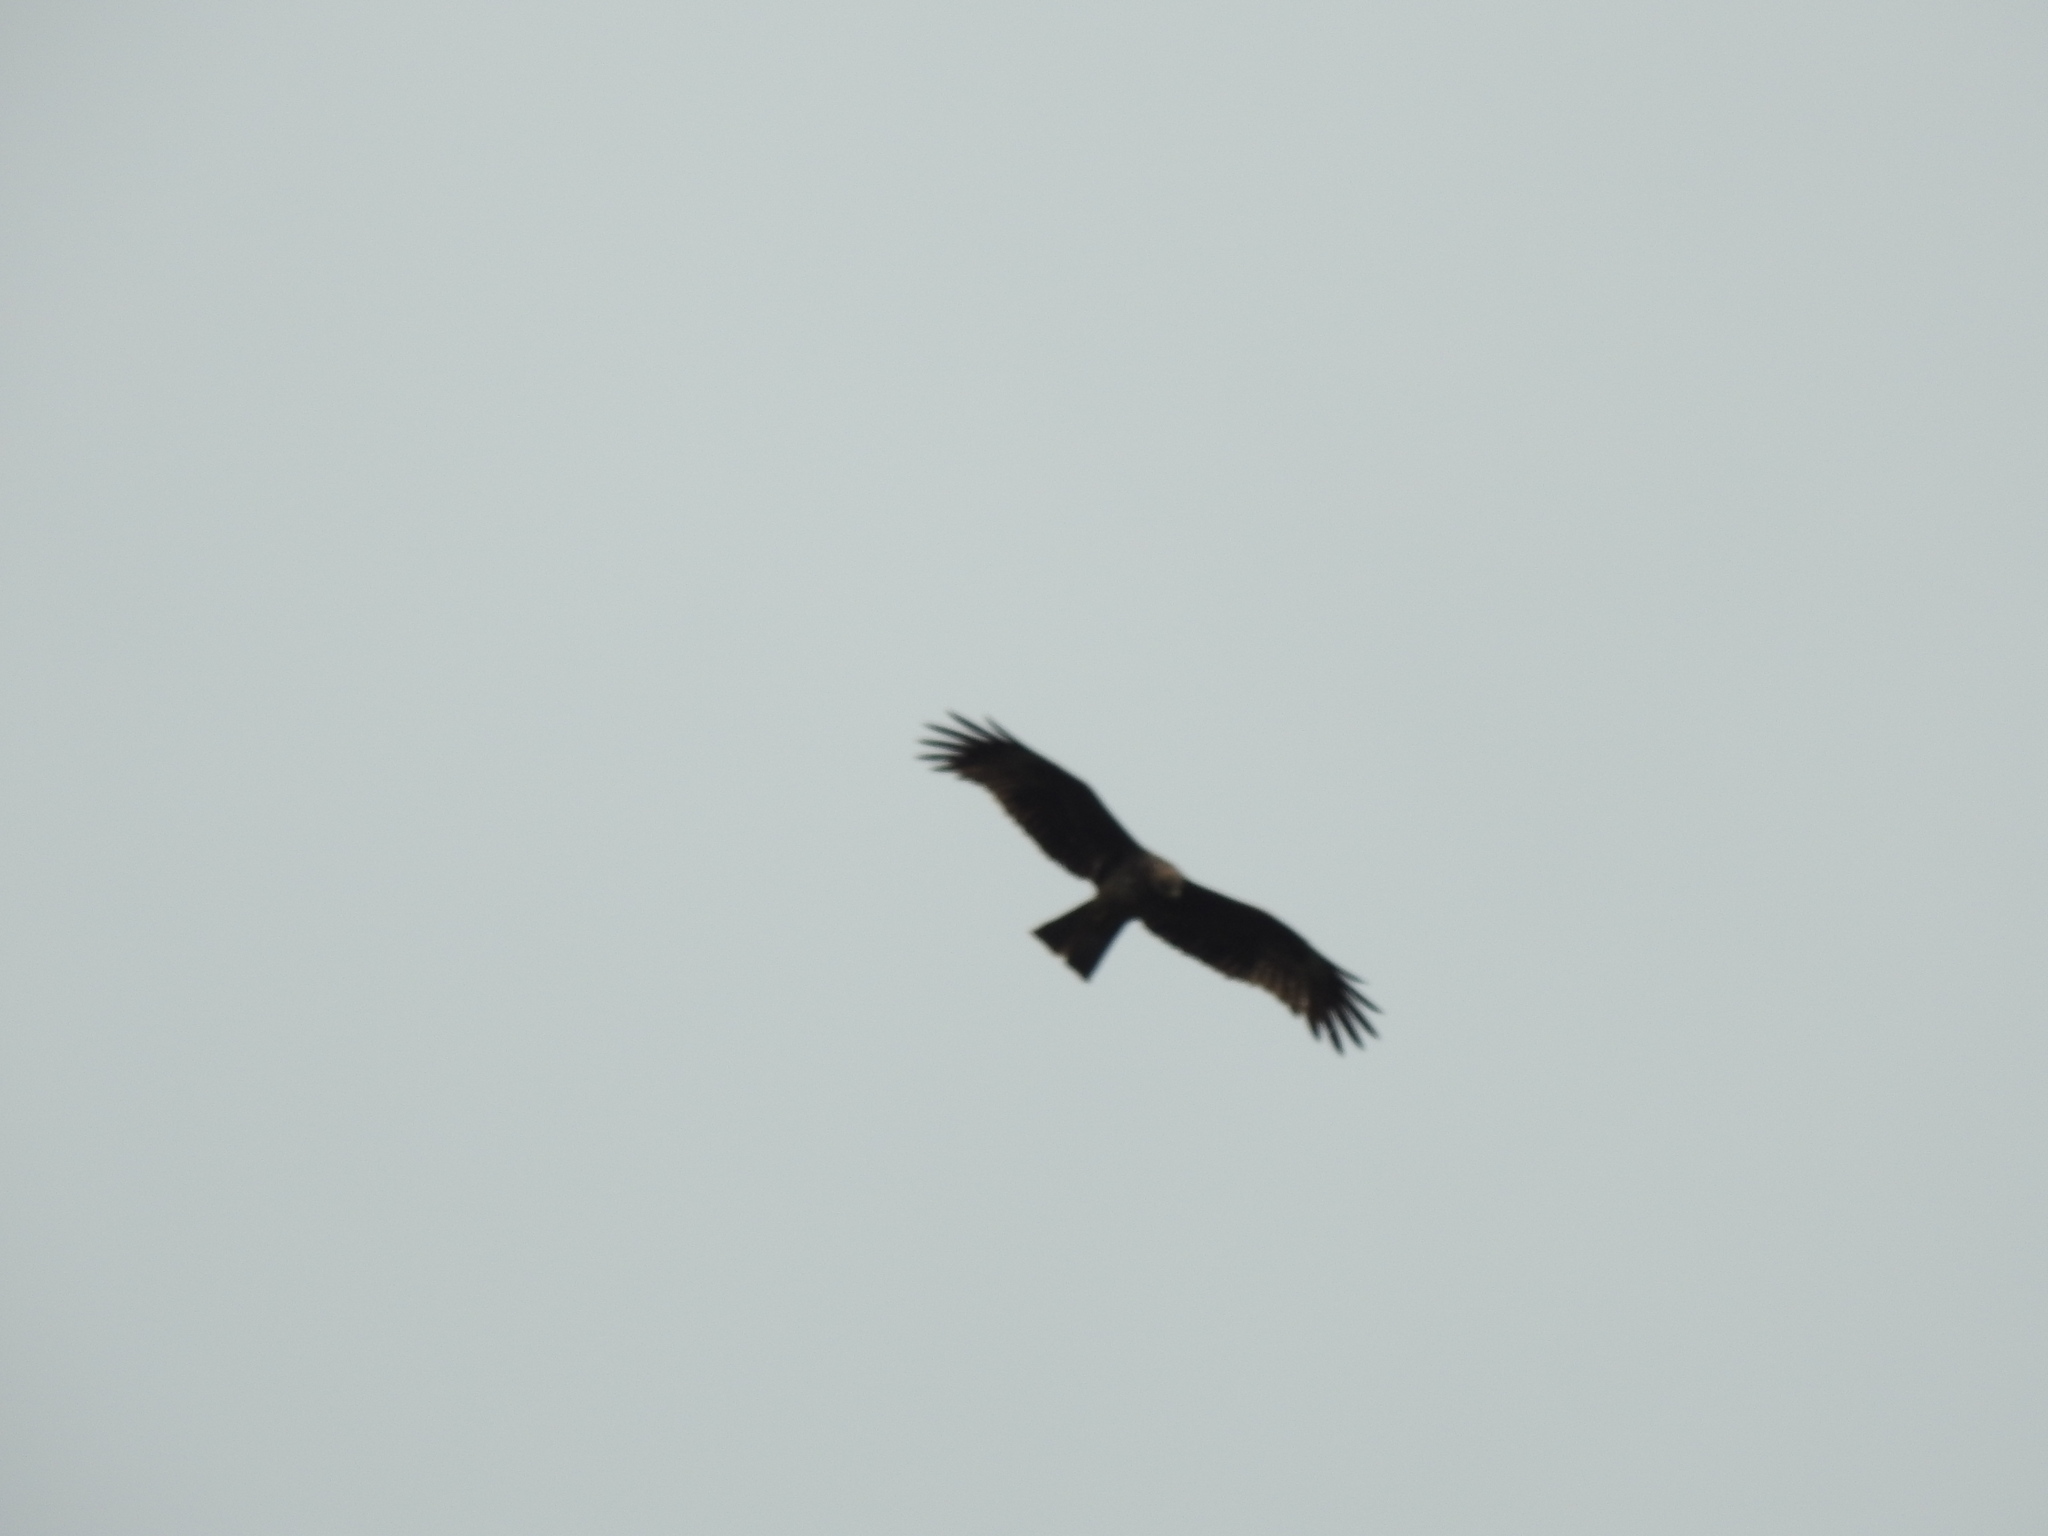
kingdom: Animalia
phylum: Chordata
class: Aves
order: Accipitriformes
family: Accipitridae
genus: Milvus
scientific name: Milvus migrans
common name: Black kite
